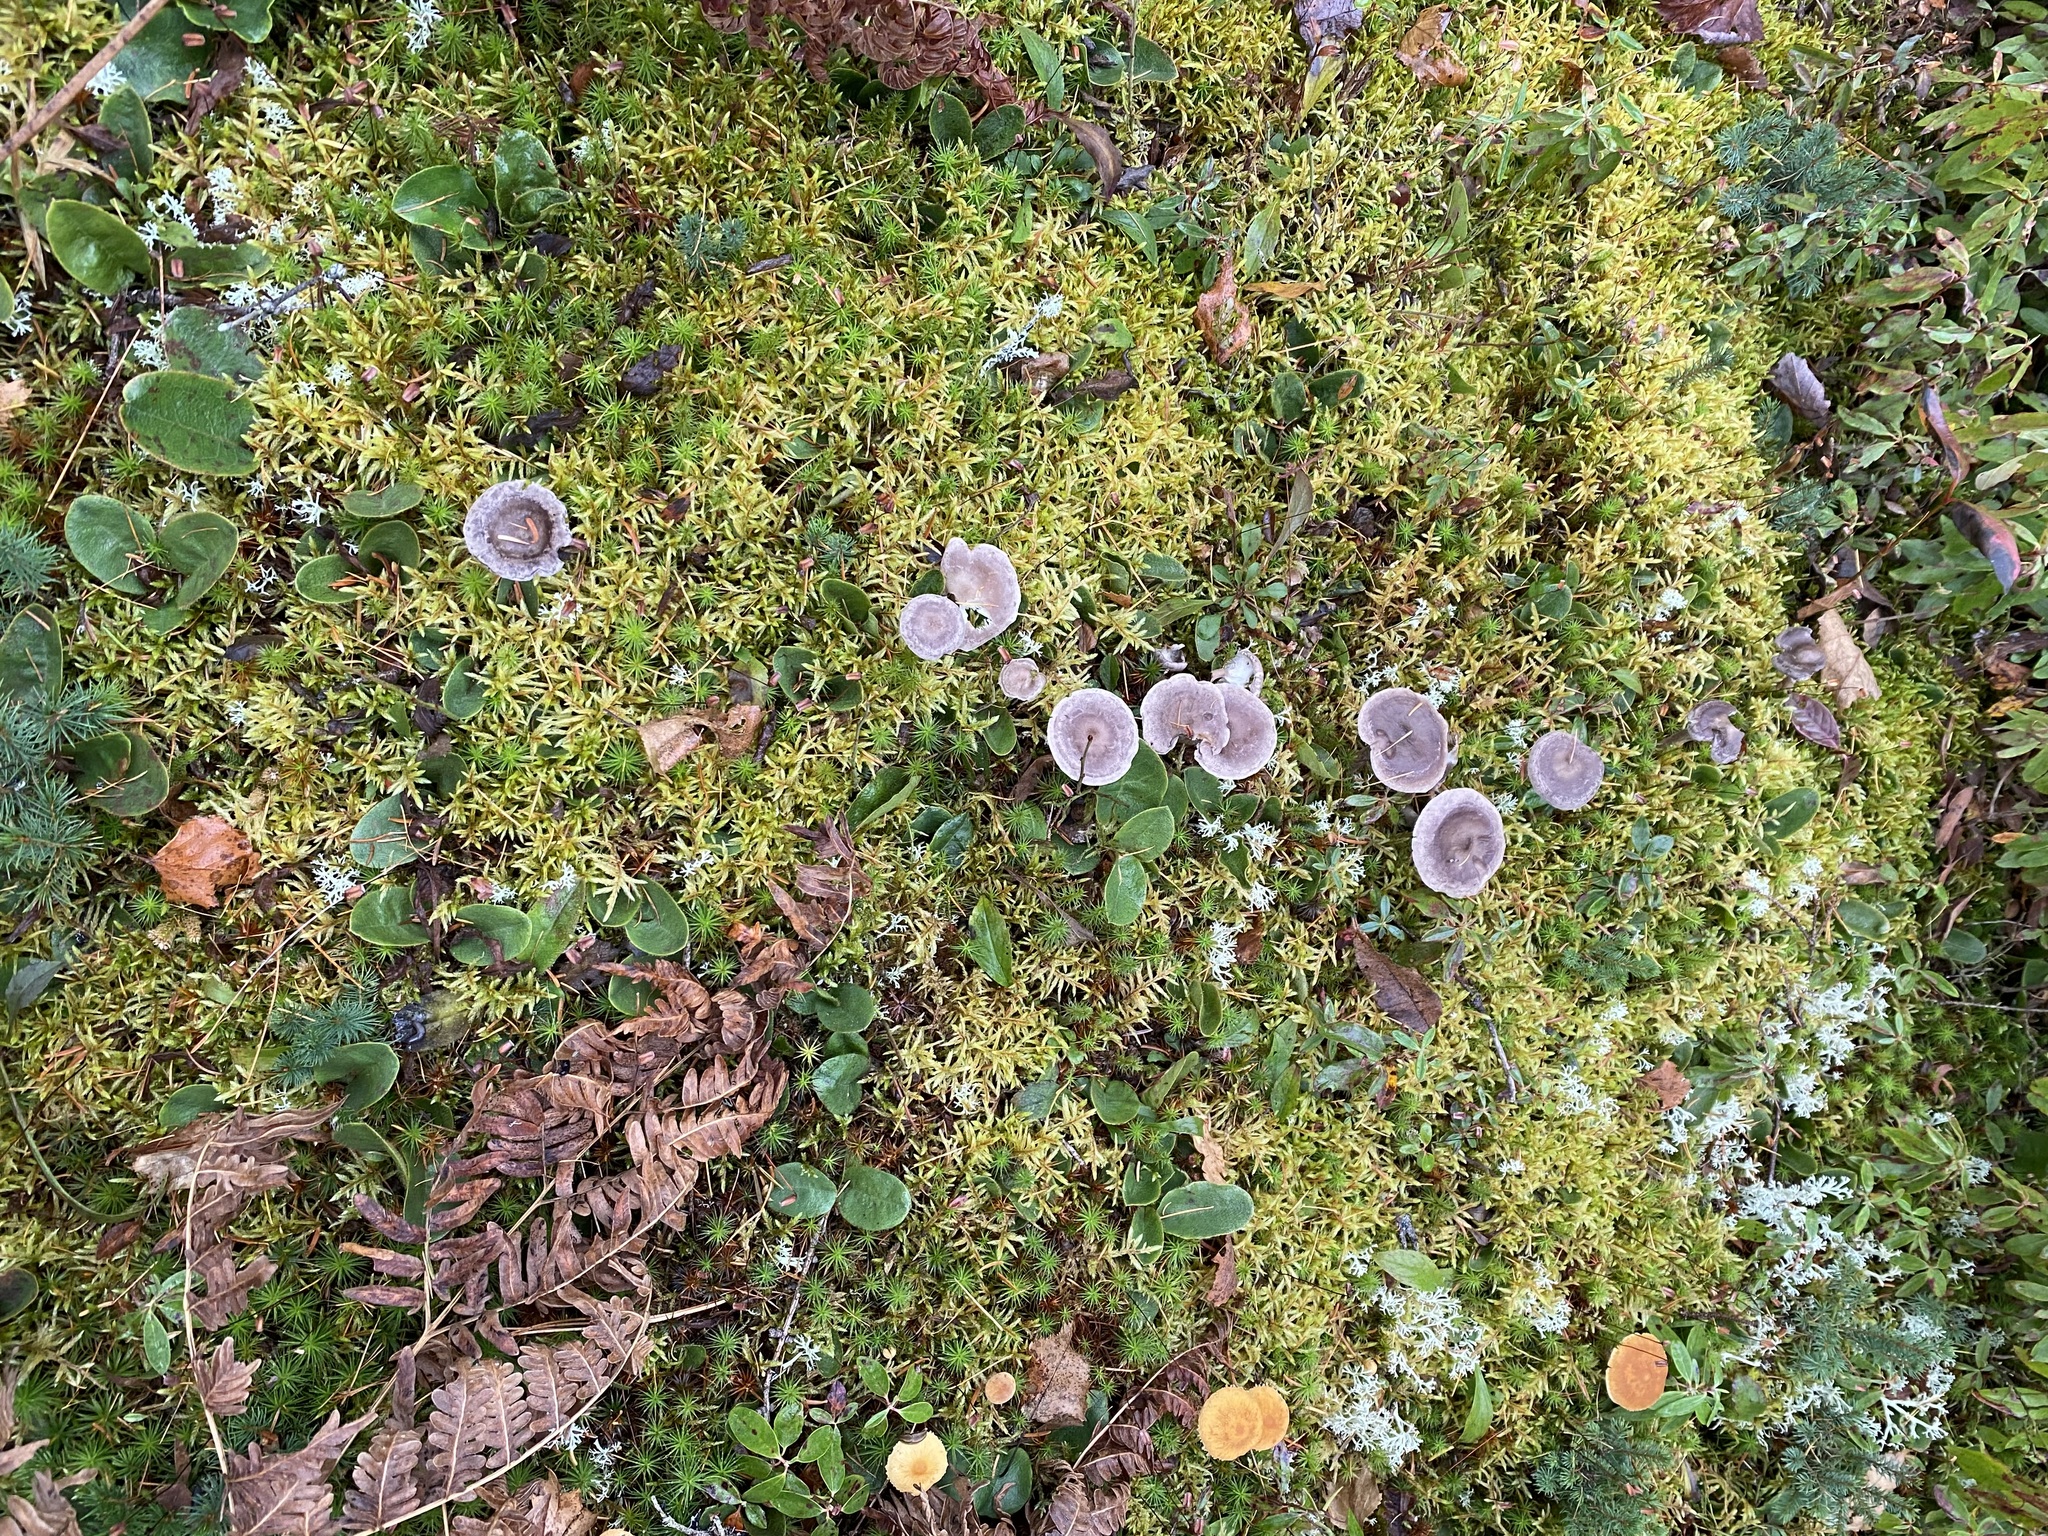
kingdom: Fungi
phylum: Basidiomycota
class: Agaricomycetes
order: Agaricales
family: Hygrophoraceae
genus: Cantharellula
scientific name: Cantharellula umbonata
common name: The humpback
